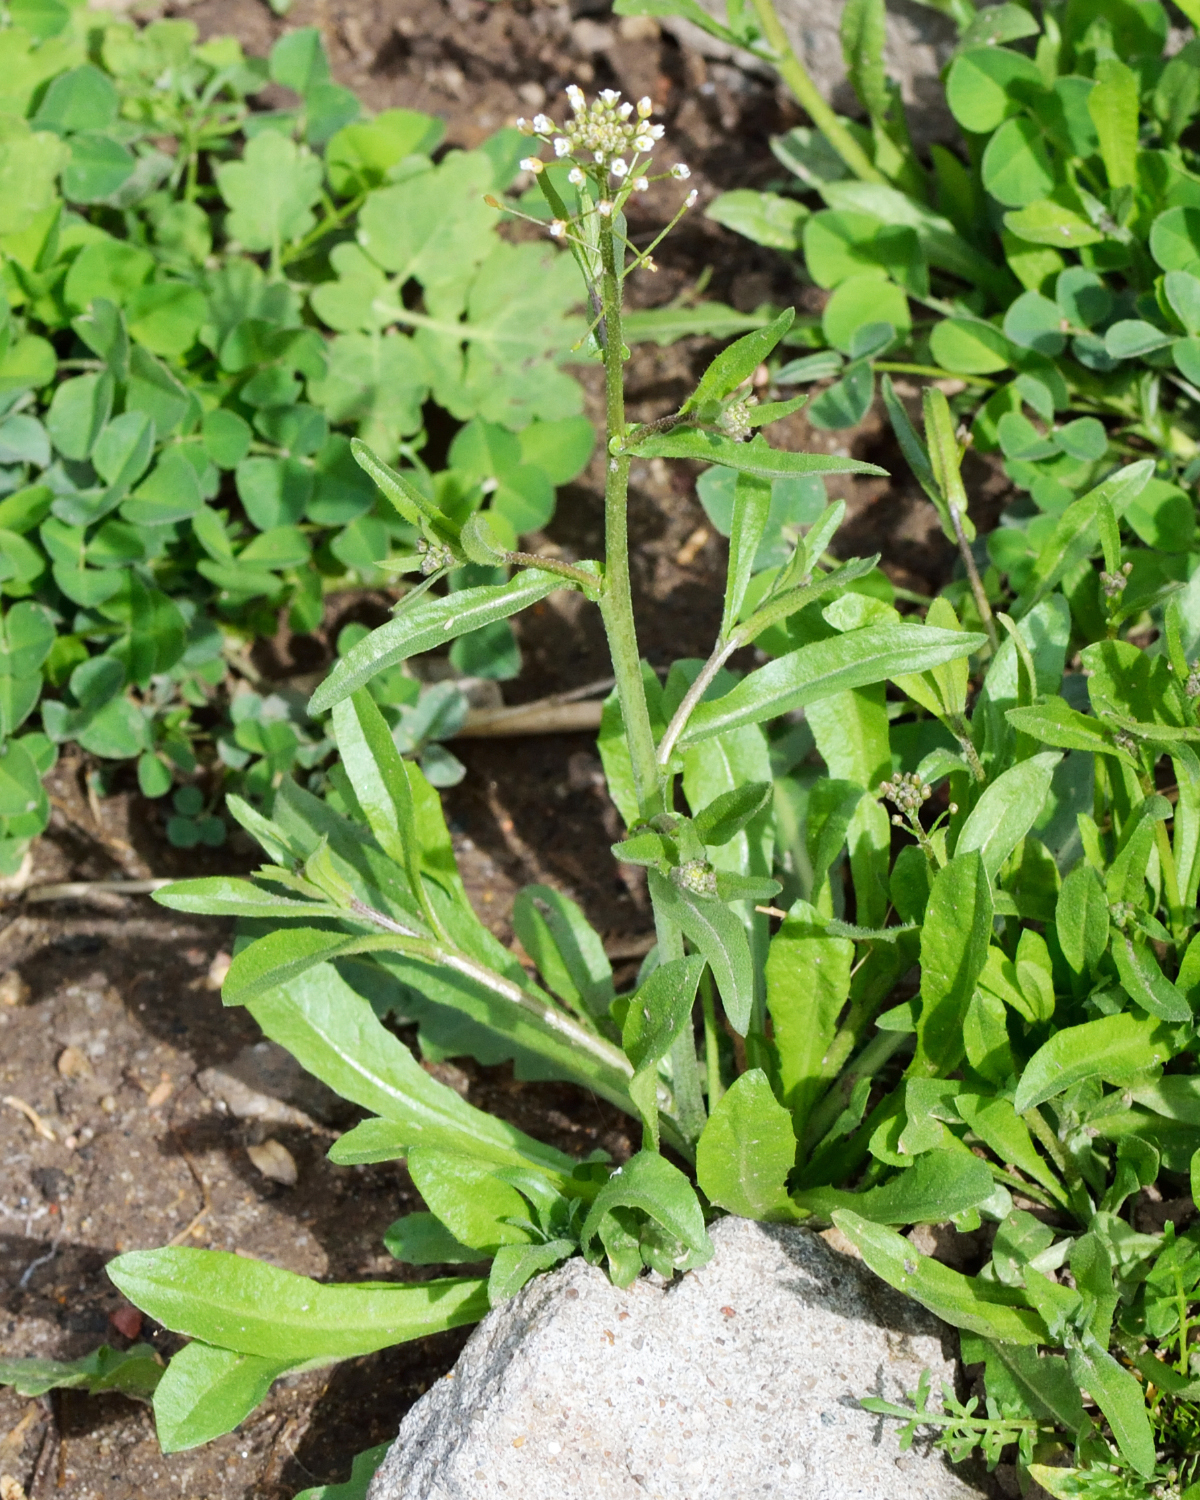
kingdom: Plantae
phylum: Tracheophyta
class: Magnoliopsida
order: Brassicales
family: Brassicaceae
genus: Capsella
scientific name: Capsella bursa-pastoris
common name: Shepherd's purse
